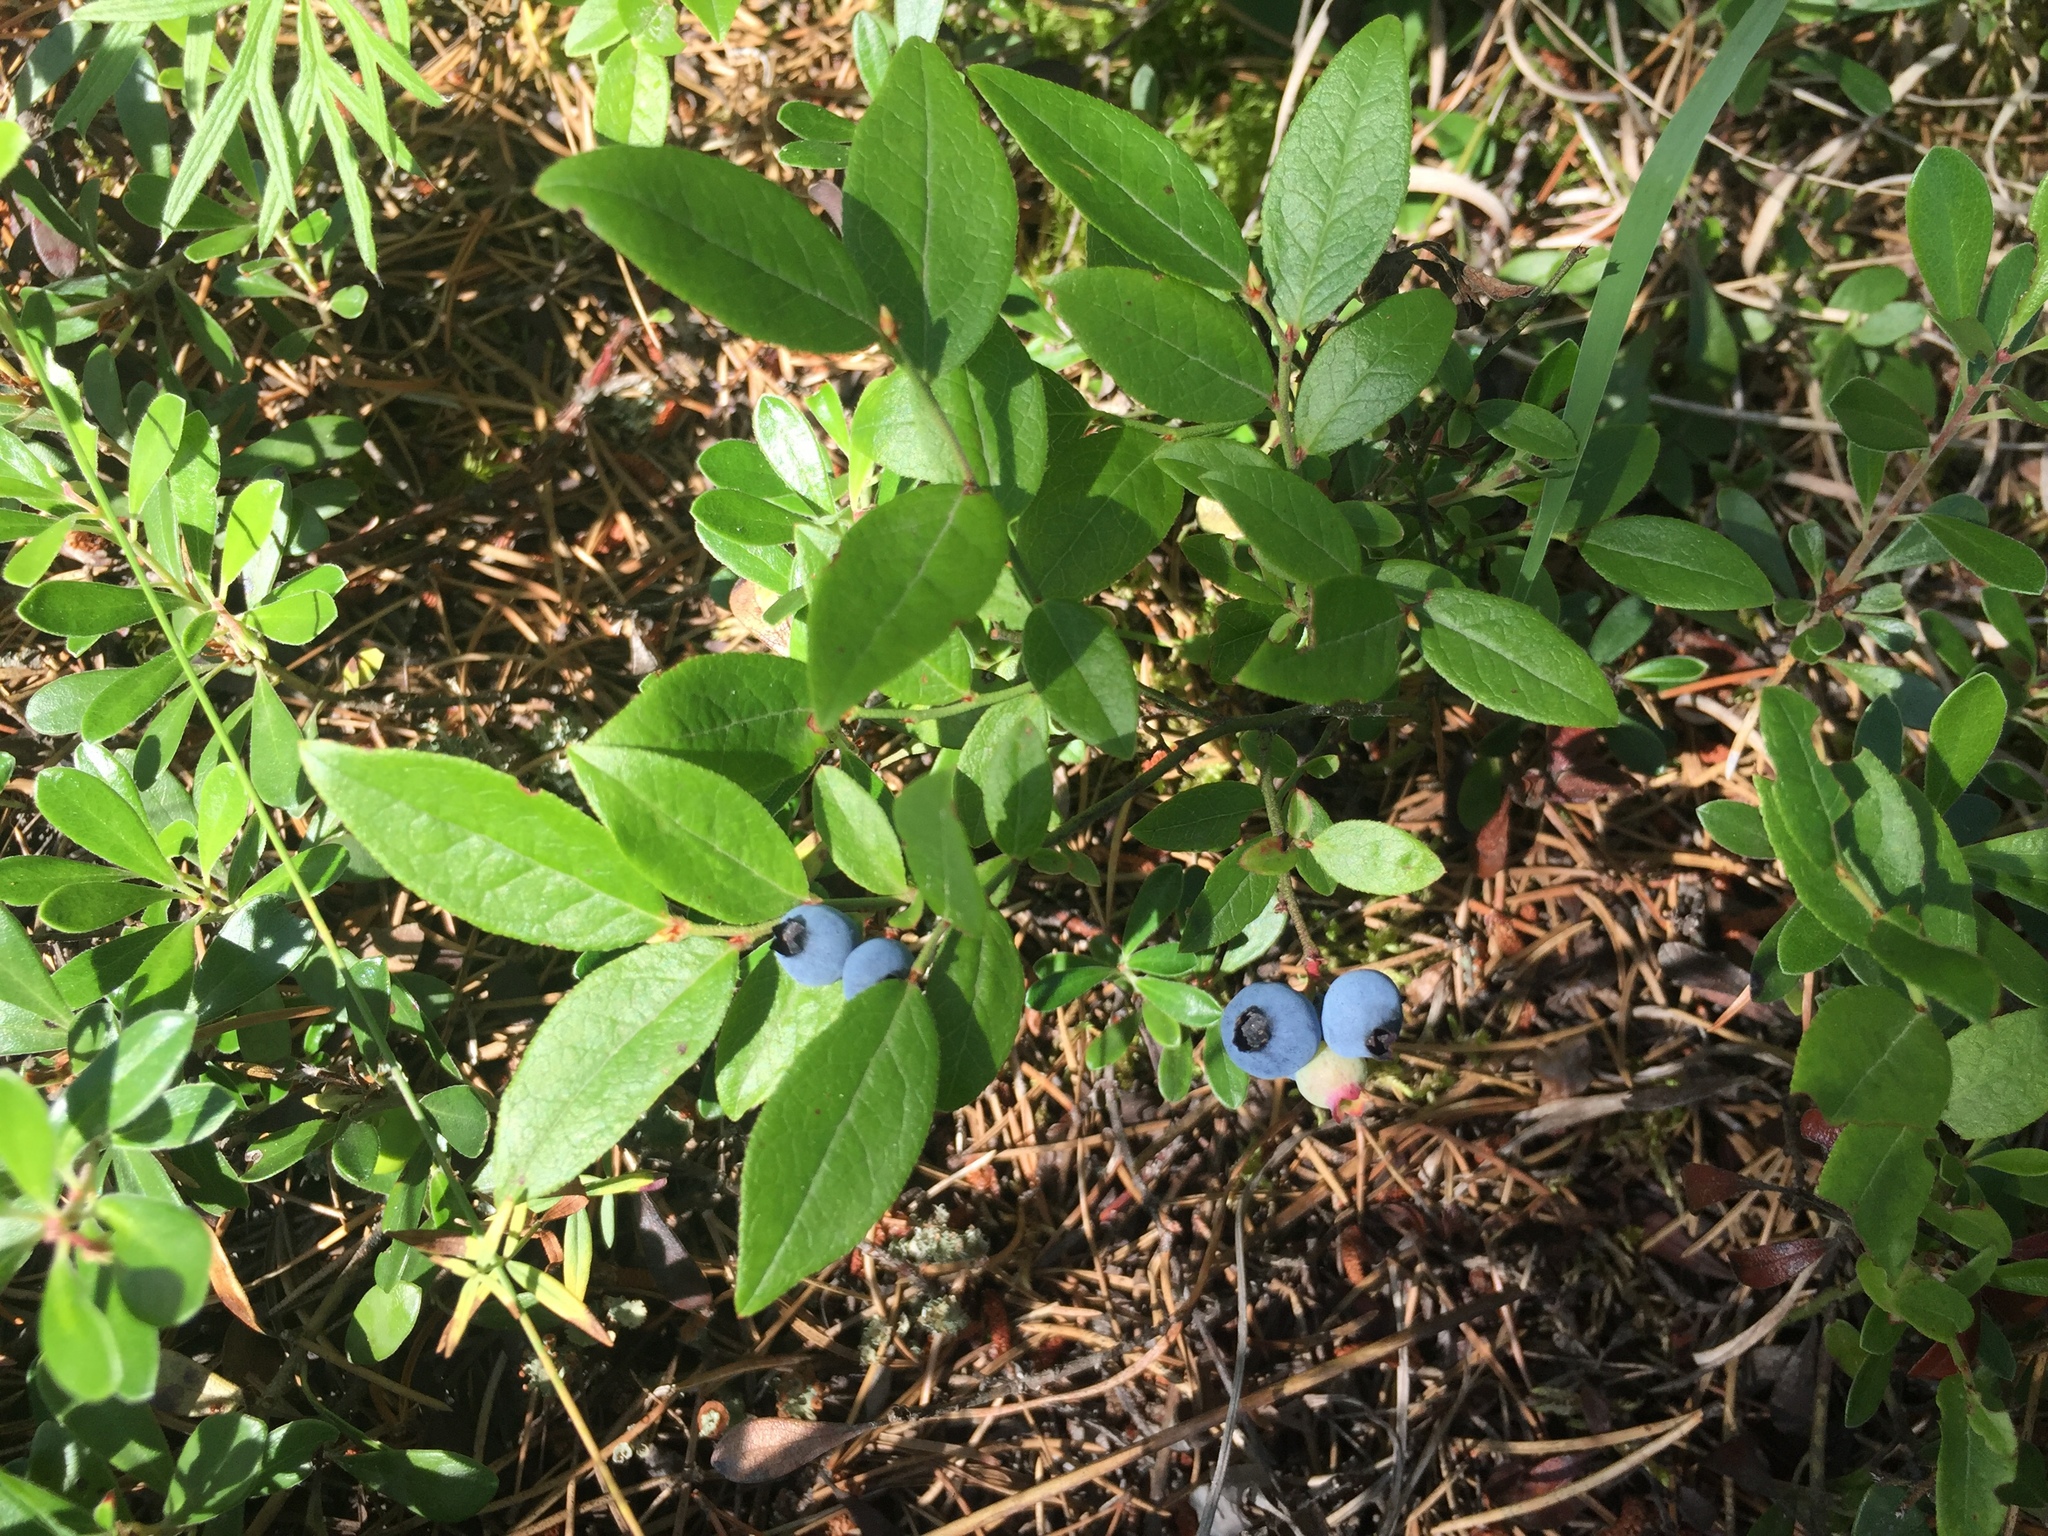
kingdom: Plantae
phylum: Tracheophyta
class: Magnoliopsida
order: Ericales
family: Ericaceae
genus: Vaccinium
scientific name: Vaccinium angustifolium
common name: Early lowbush blueberry
